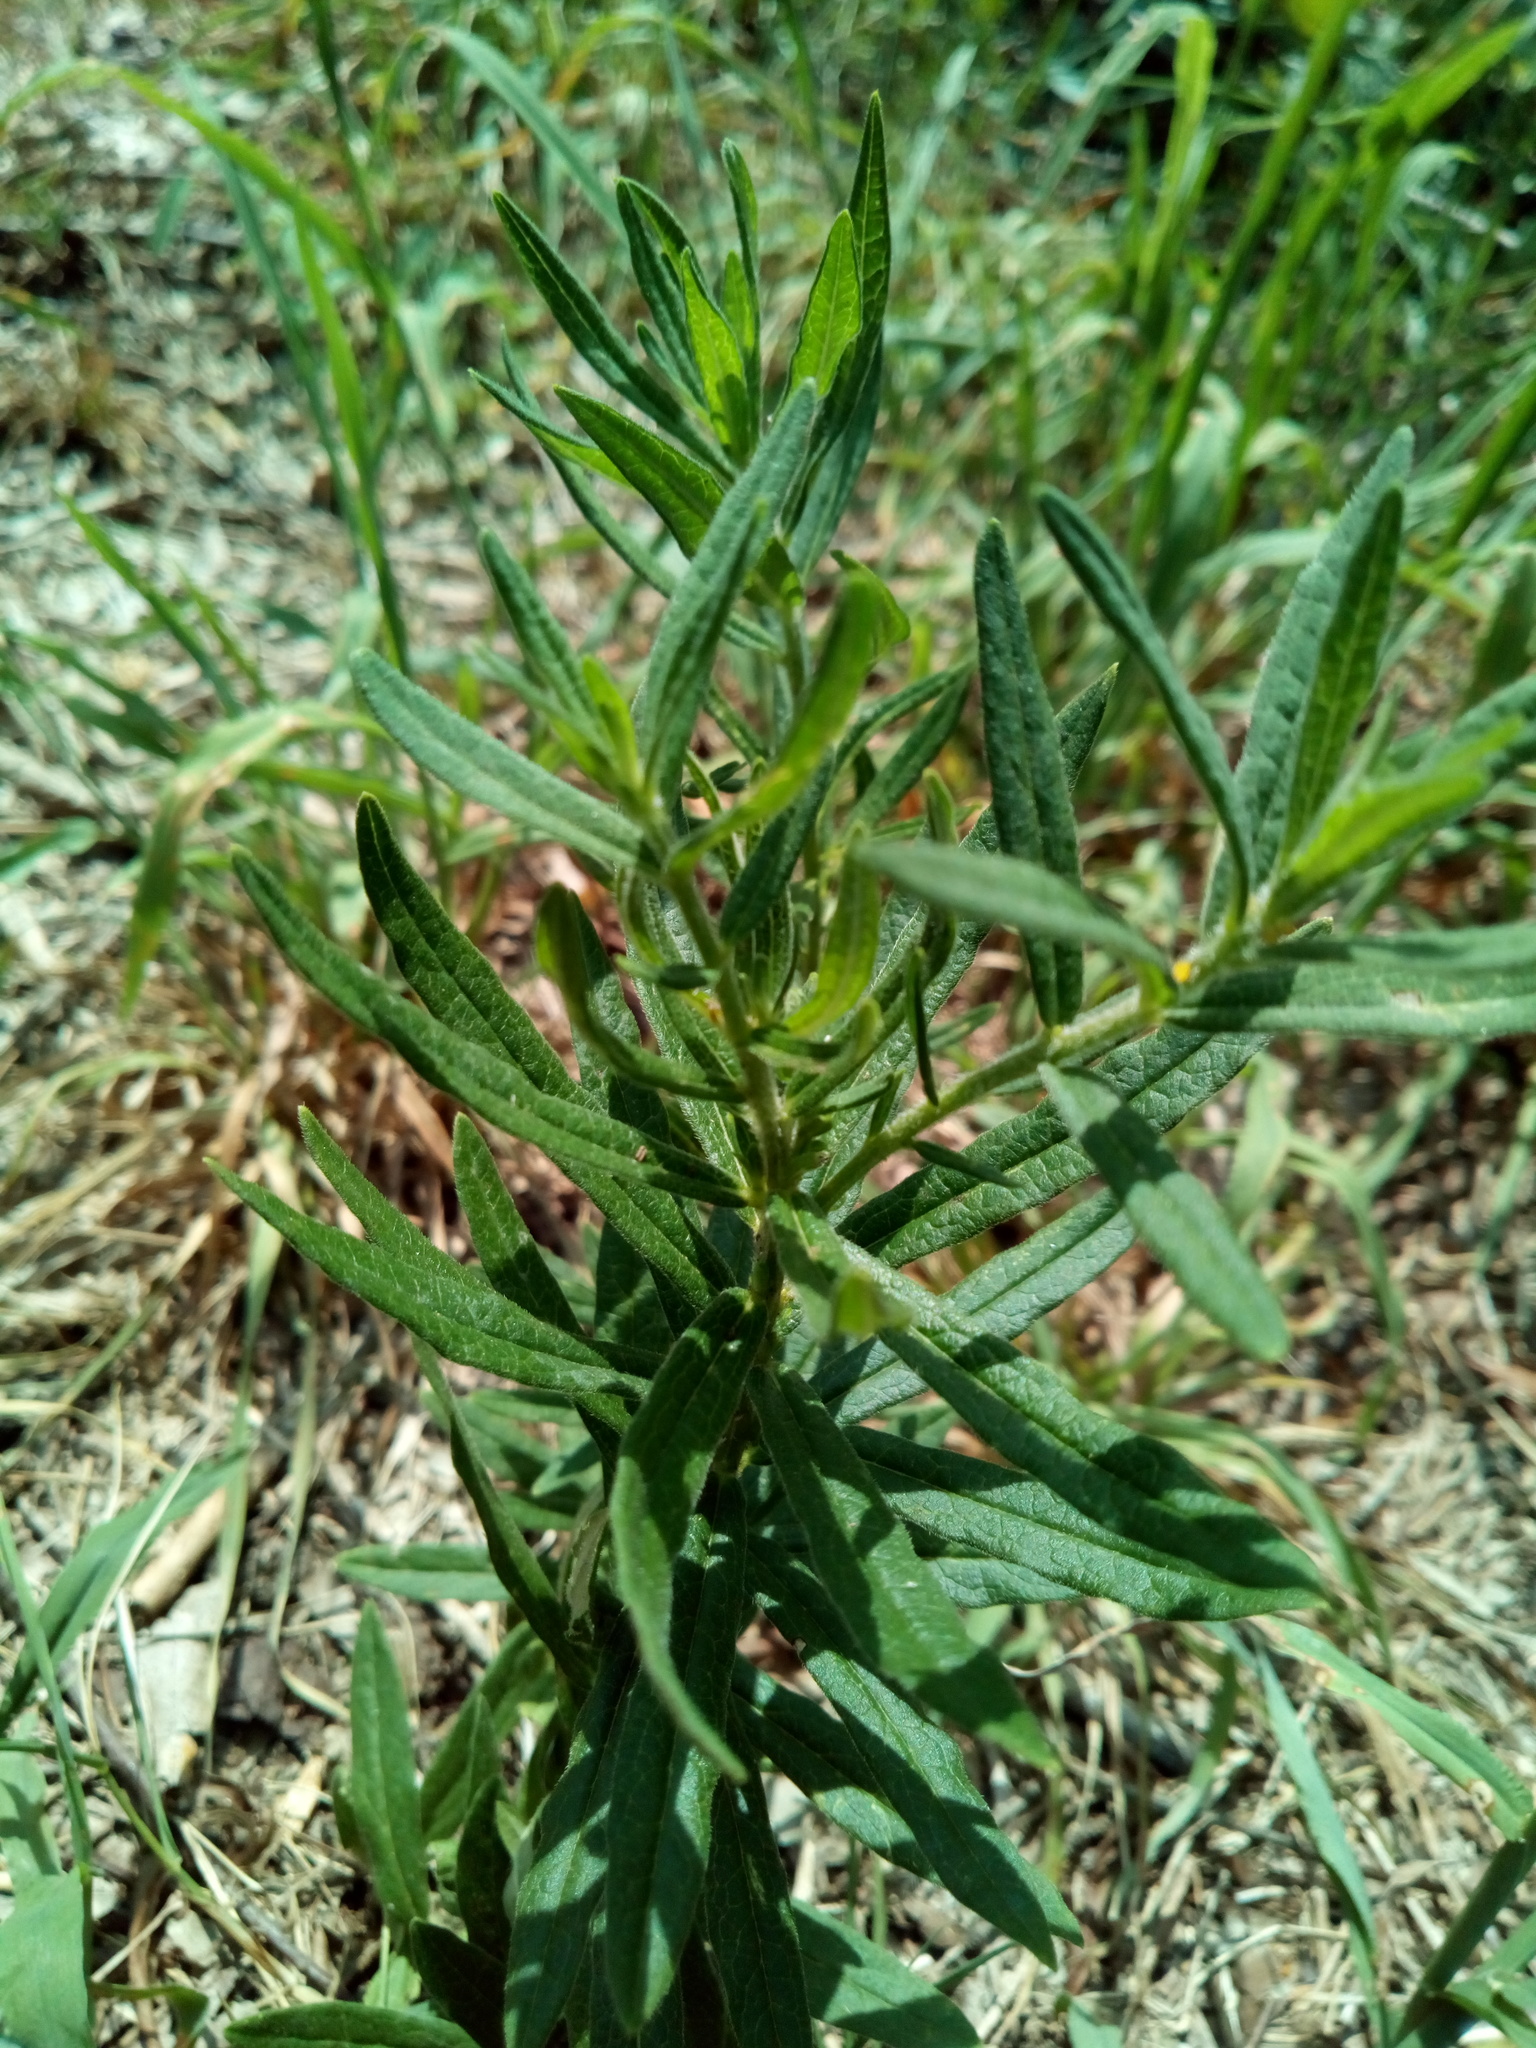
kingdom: Plantae
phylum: Tracheophyta
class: Magnoliopsida
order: Gentianales
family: Apocynaceae
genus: Asclepias
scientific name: Asclepias tuberosa
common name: Butterfly milkweed
